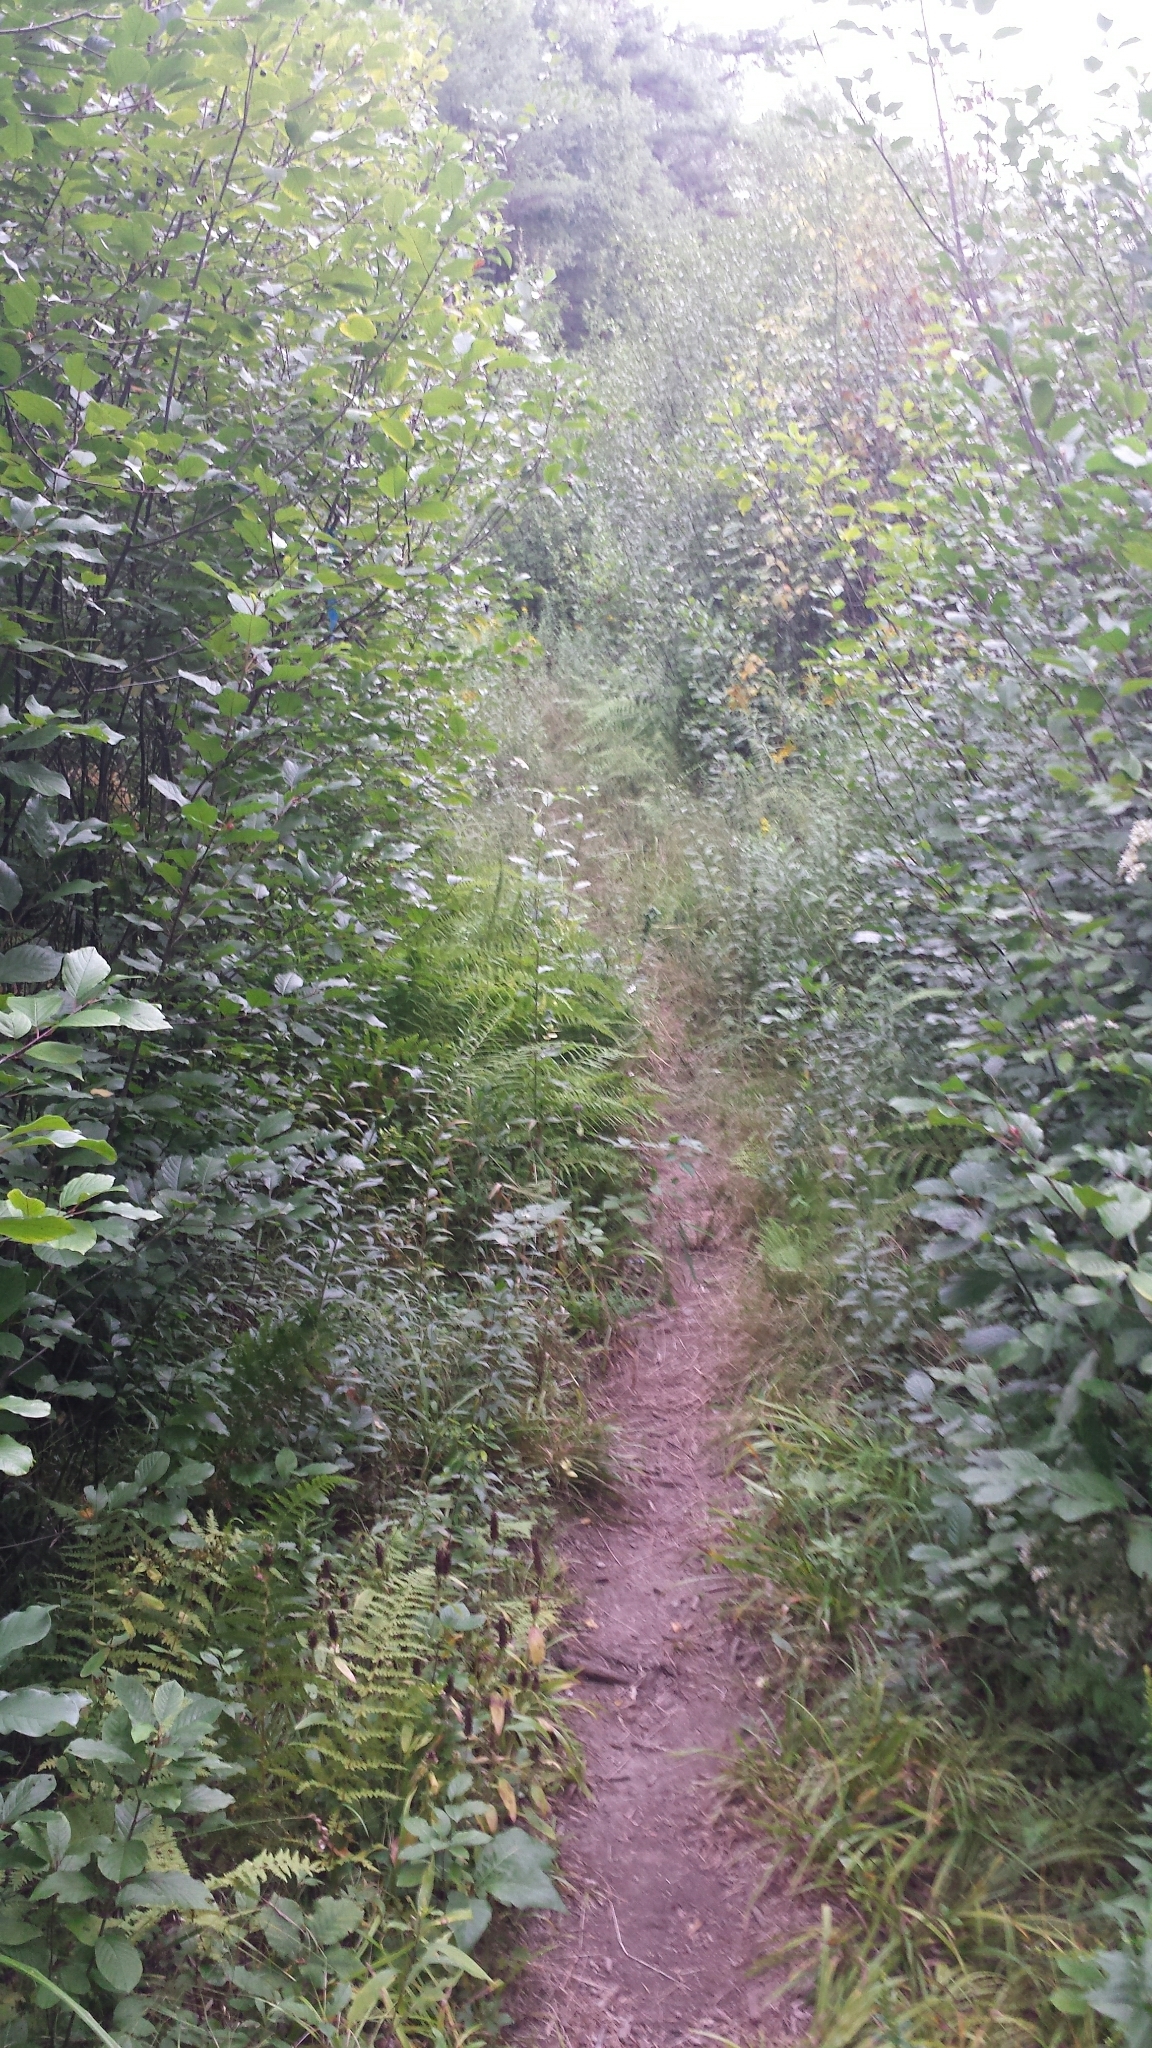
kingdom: Plantae
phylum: Tracheophyta
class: Magnoliopsida
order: Rosales
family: Rhamnaceae
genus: Frangula
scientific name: Frangula alnus
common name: Alder buckthorn
